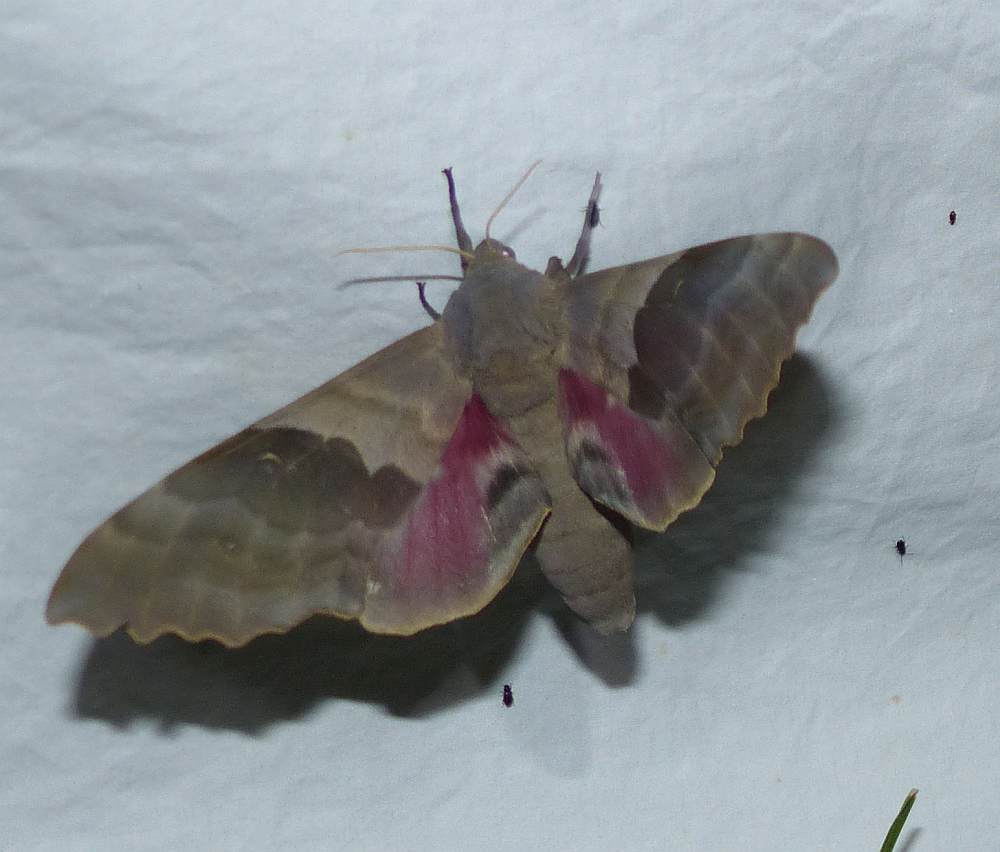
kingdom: Animalia
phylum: Arthropoda
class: Insecta
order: Lepidoptera
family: Sphingidae
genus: Pachysphinx
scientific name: Pachysphinx modesta
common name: Big poplar sphinx
